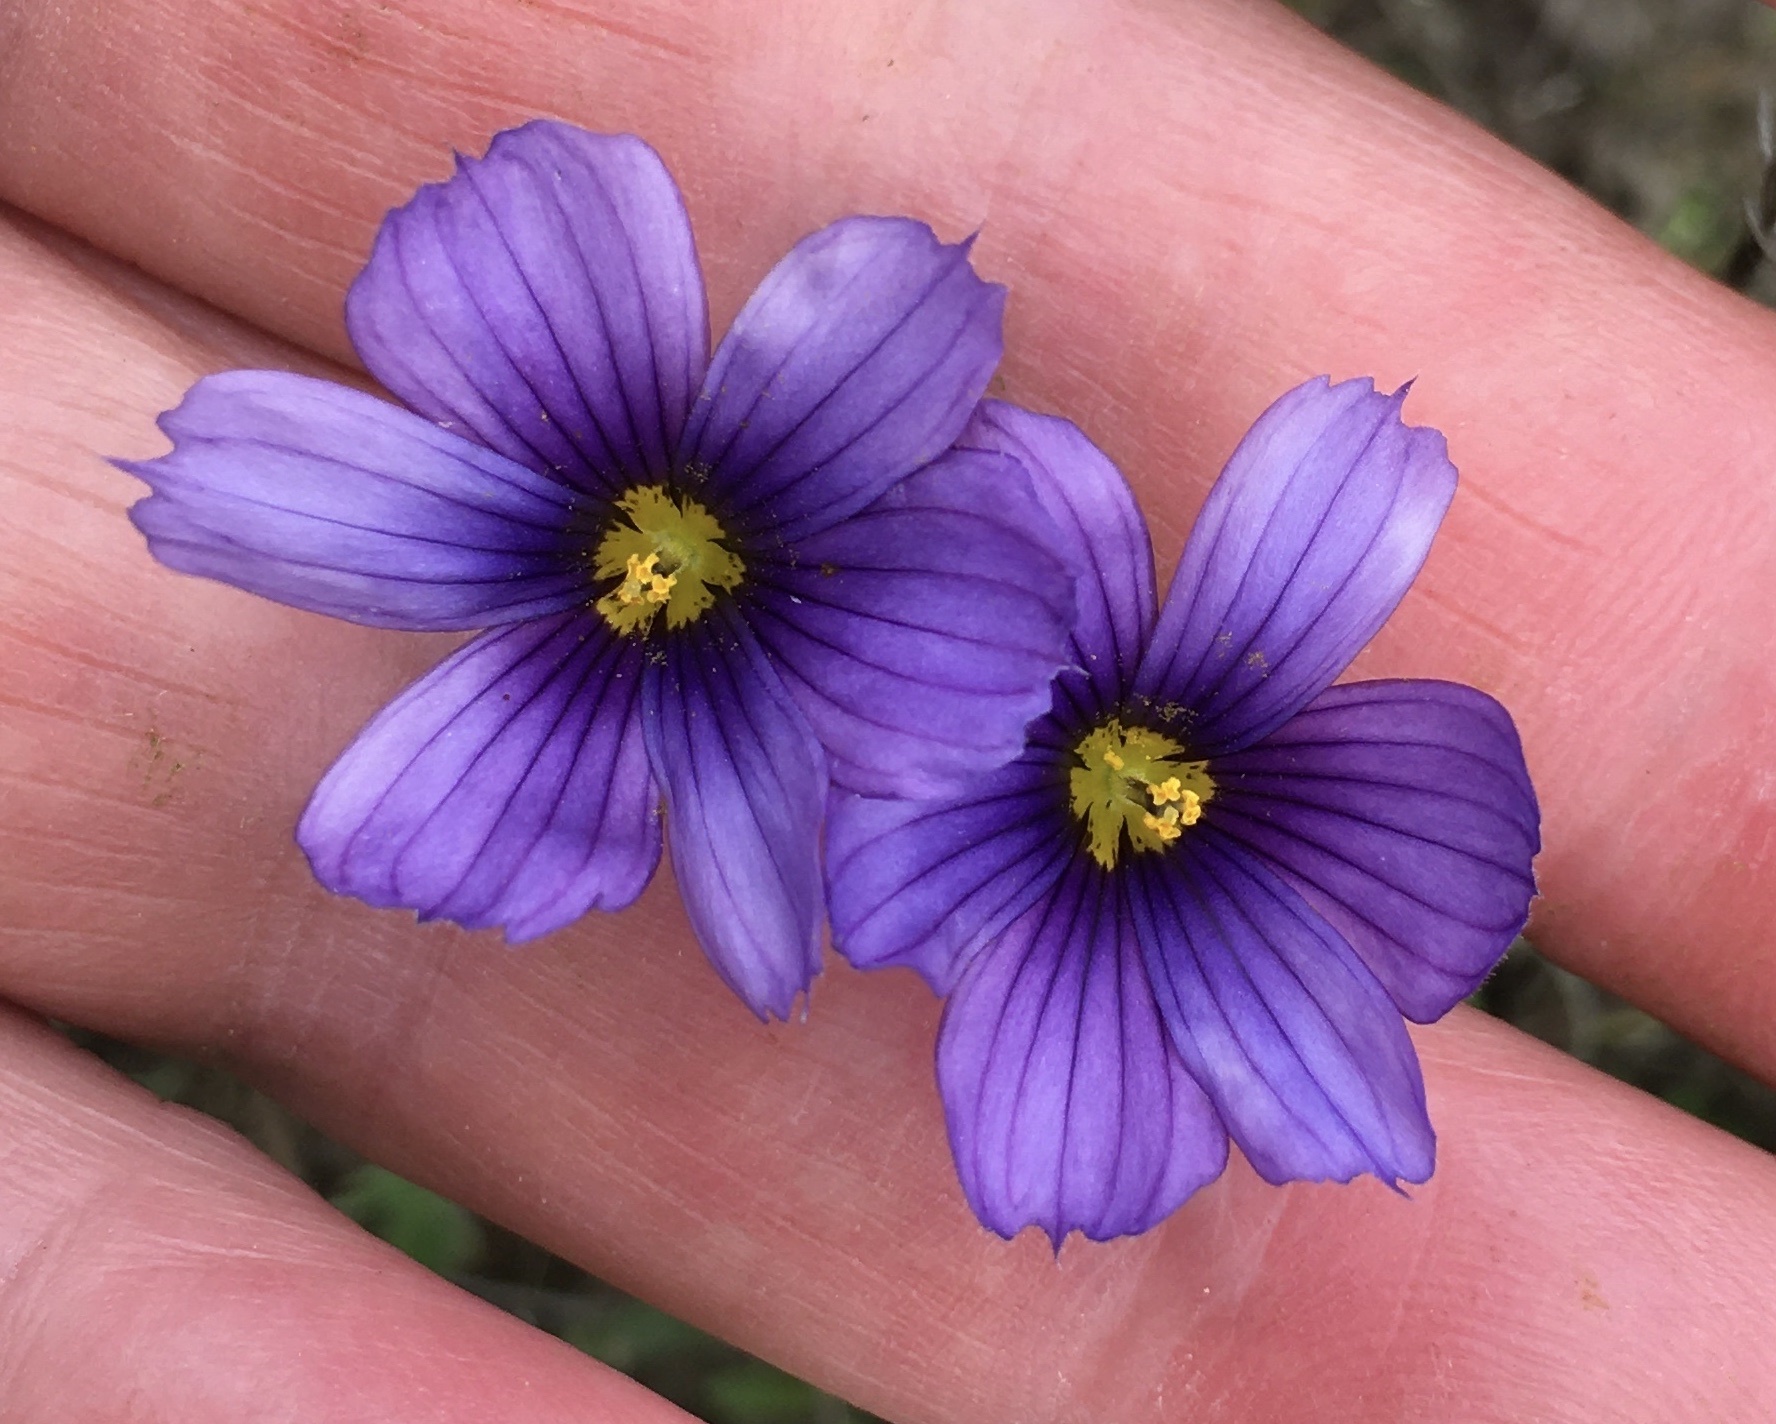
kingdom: Plantae
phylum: Tracheophyta
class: Liliopsida
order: Asparagales
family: Iridaceae
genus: Sisyrinchium
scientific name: Sisyrinchium bellum
